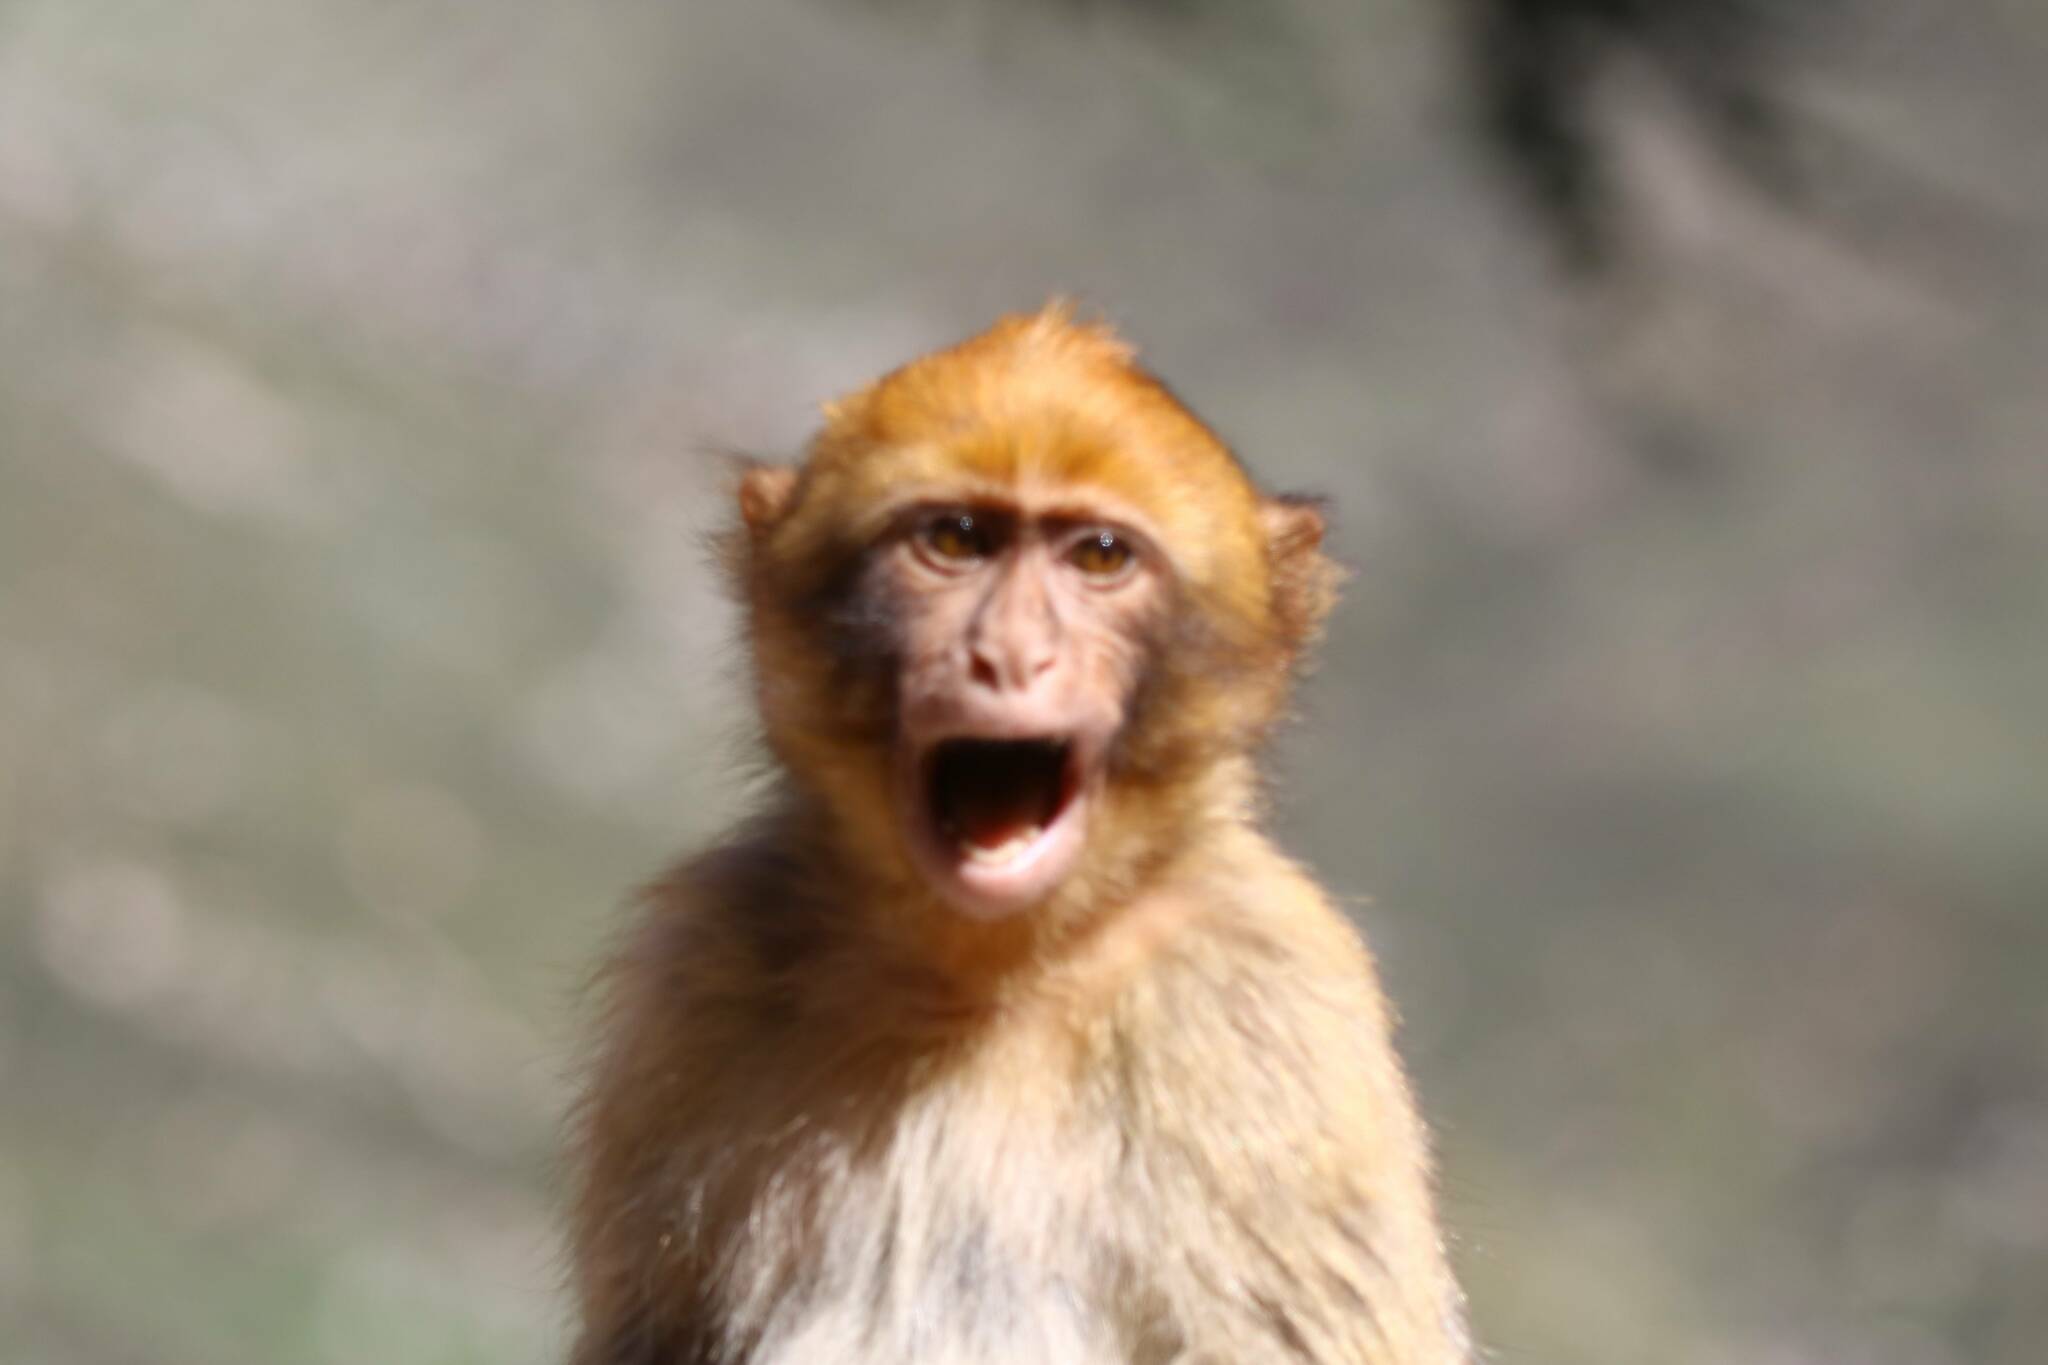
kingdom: Animalia
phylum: Chordata
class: Mammalia
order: Primates
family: Cercopithecidae
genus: Macaca
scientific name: Macaca sylvanus
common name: Barbary macaque
